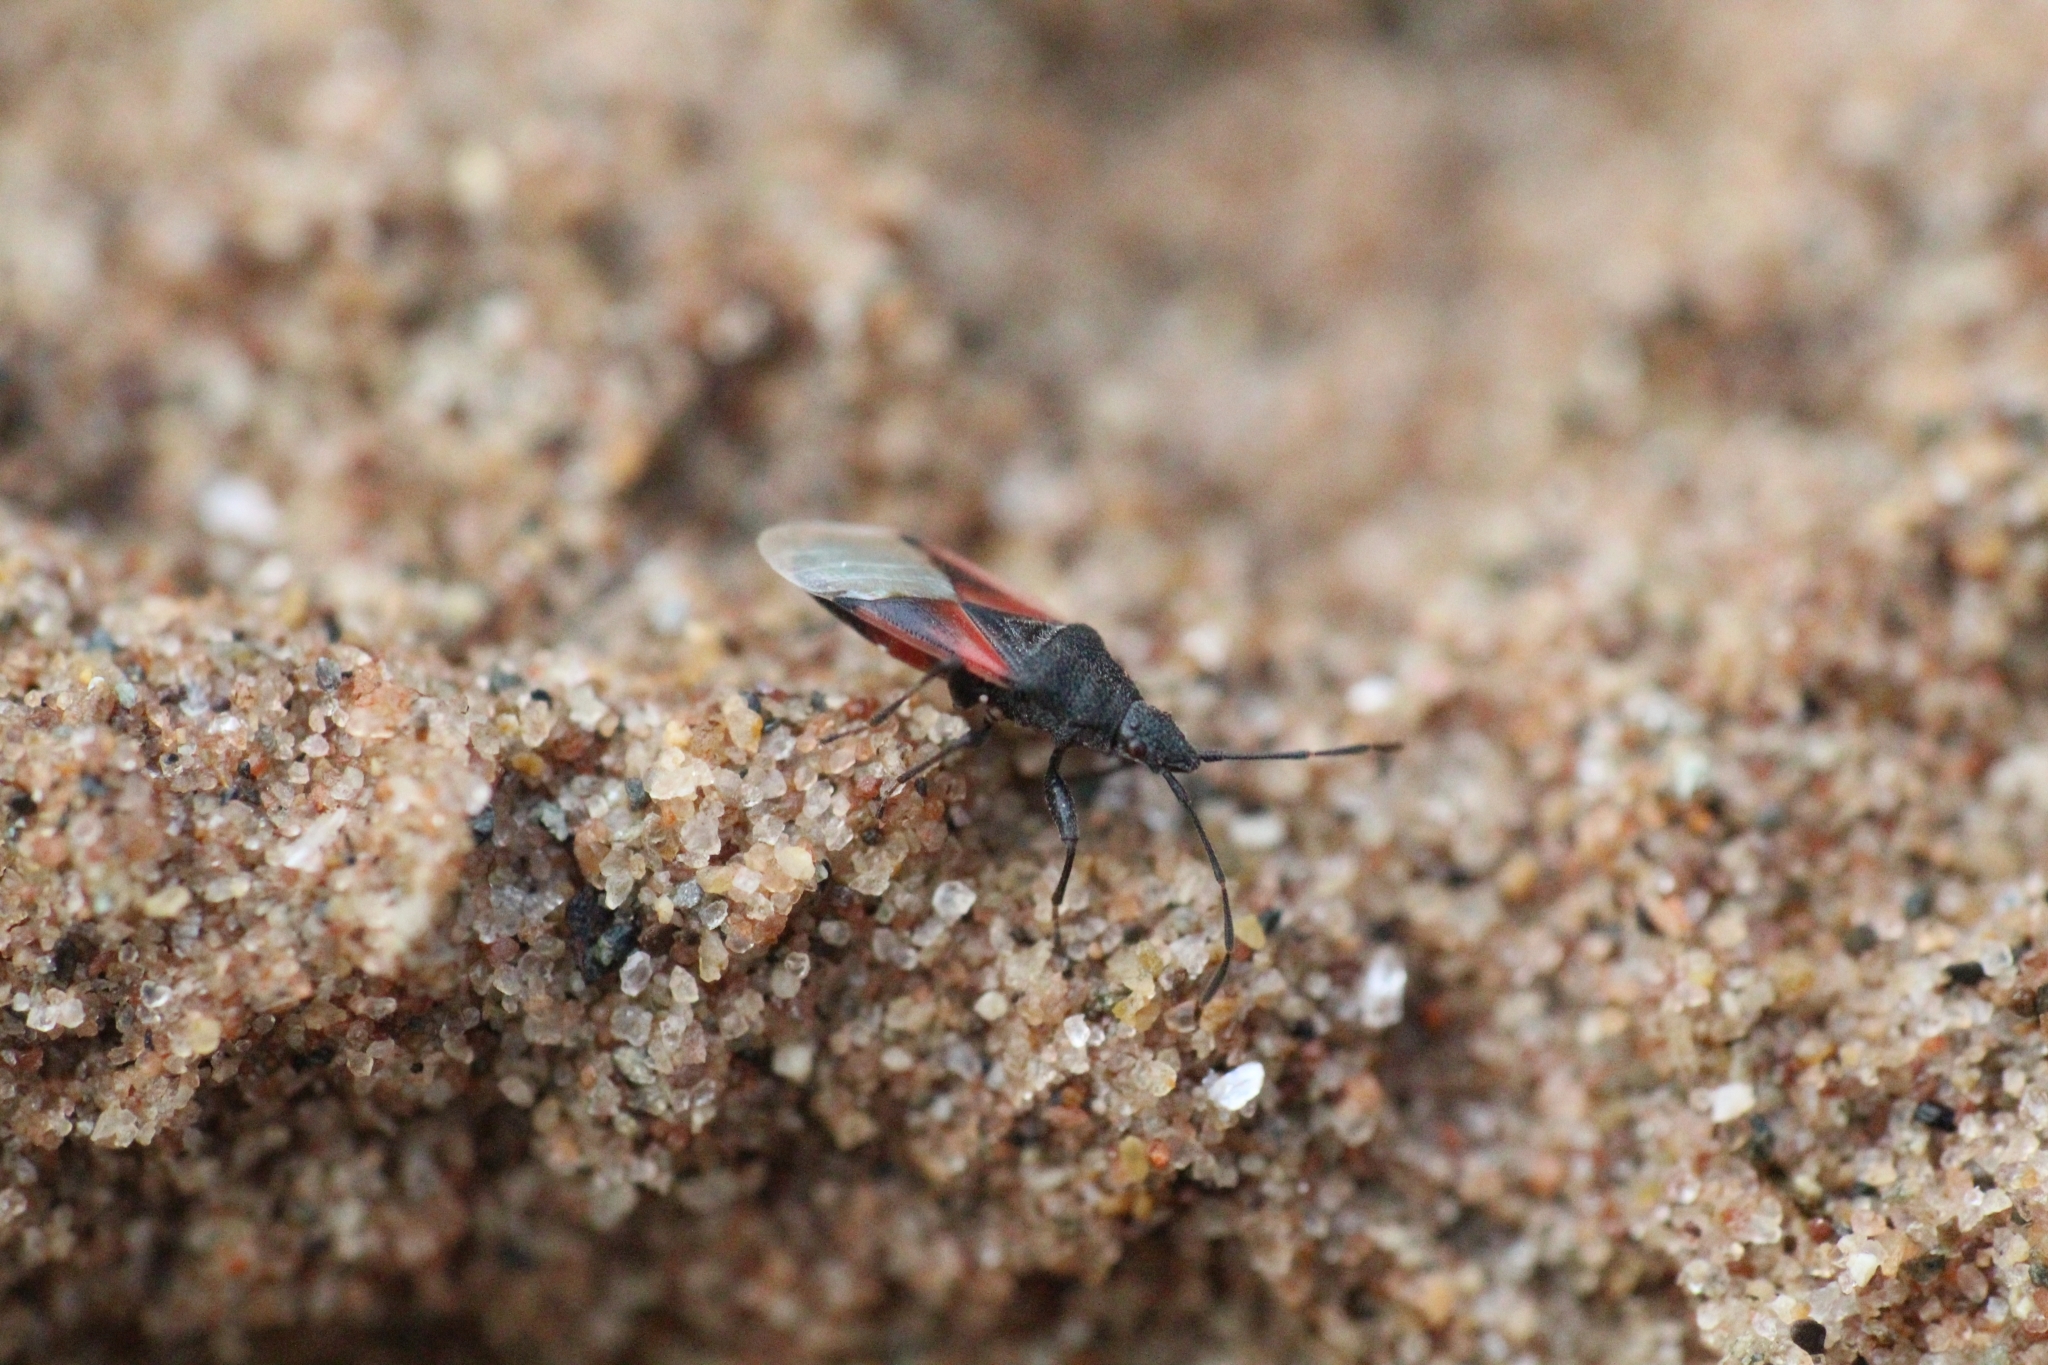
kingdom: Animalia
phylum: Arthropoda
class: Insecta
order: Hemiptera
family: Oxycarenidae
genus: Oxycarenus
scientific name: Oxycarenus lavaterae
